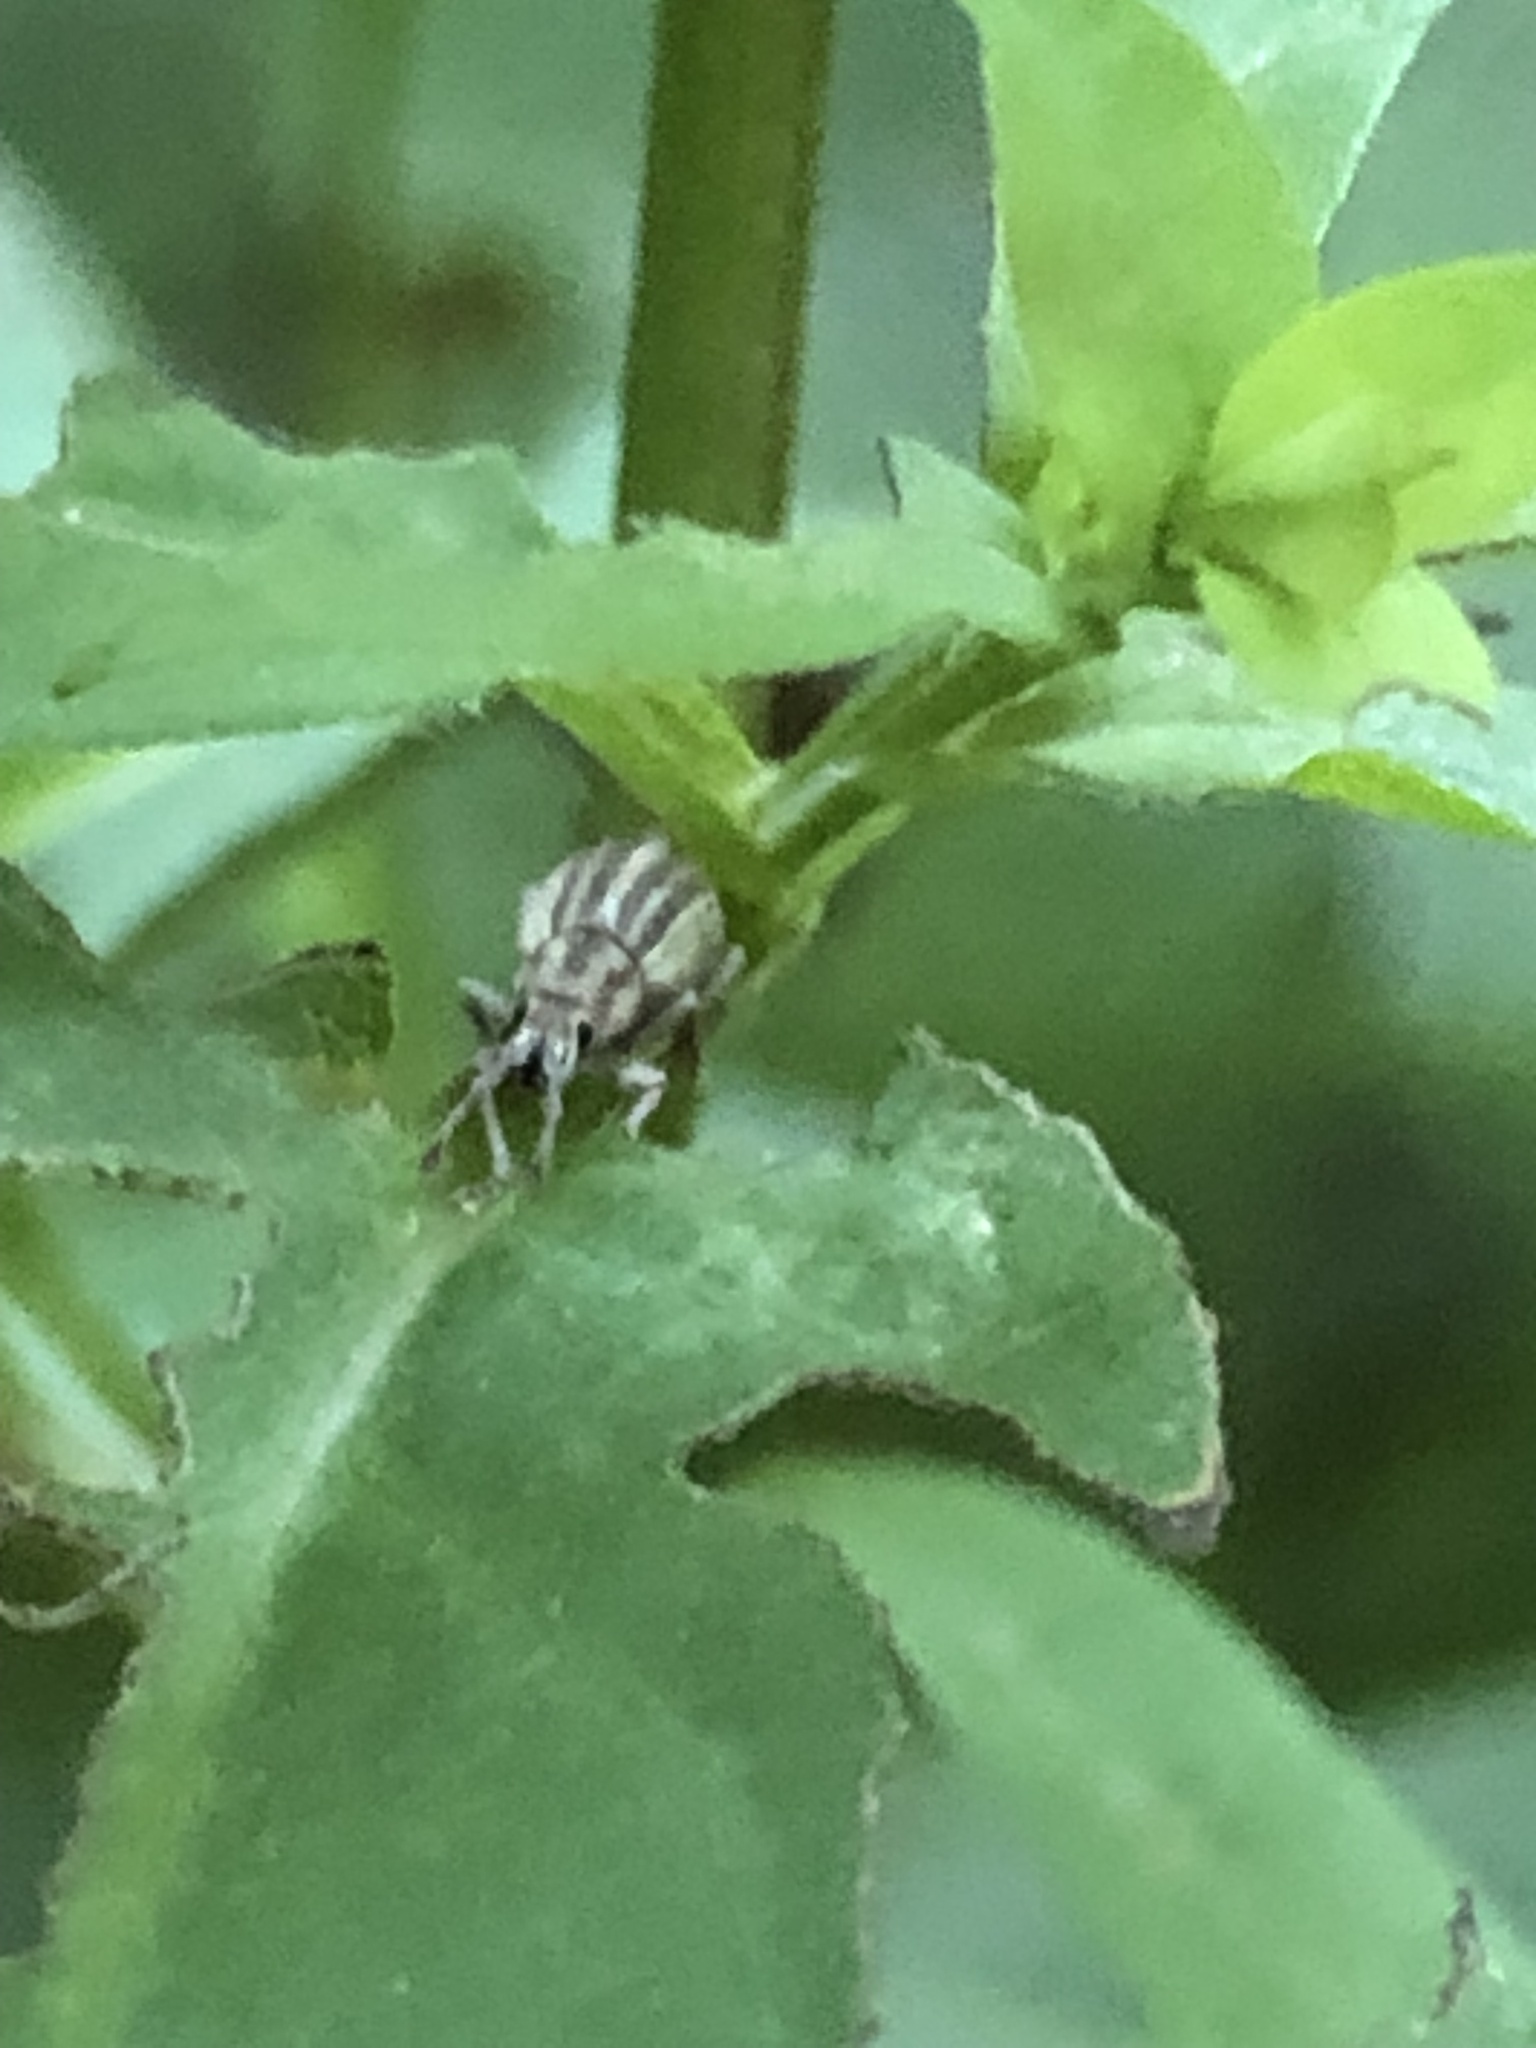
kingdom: Animalia
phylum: Arthropoda
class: Insecta
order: Coleoptera
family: Curculionidae
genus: Aphrastus
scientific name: Aphrastus taeniatus
